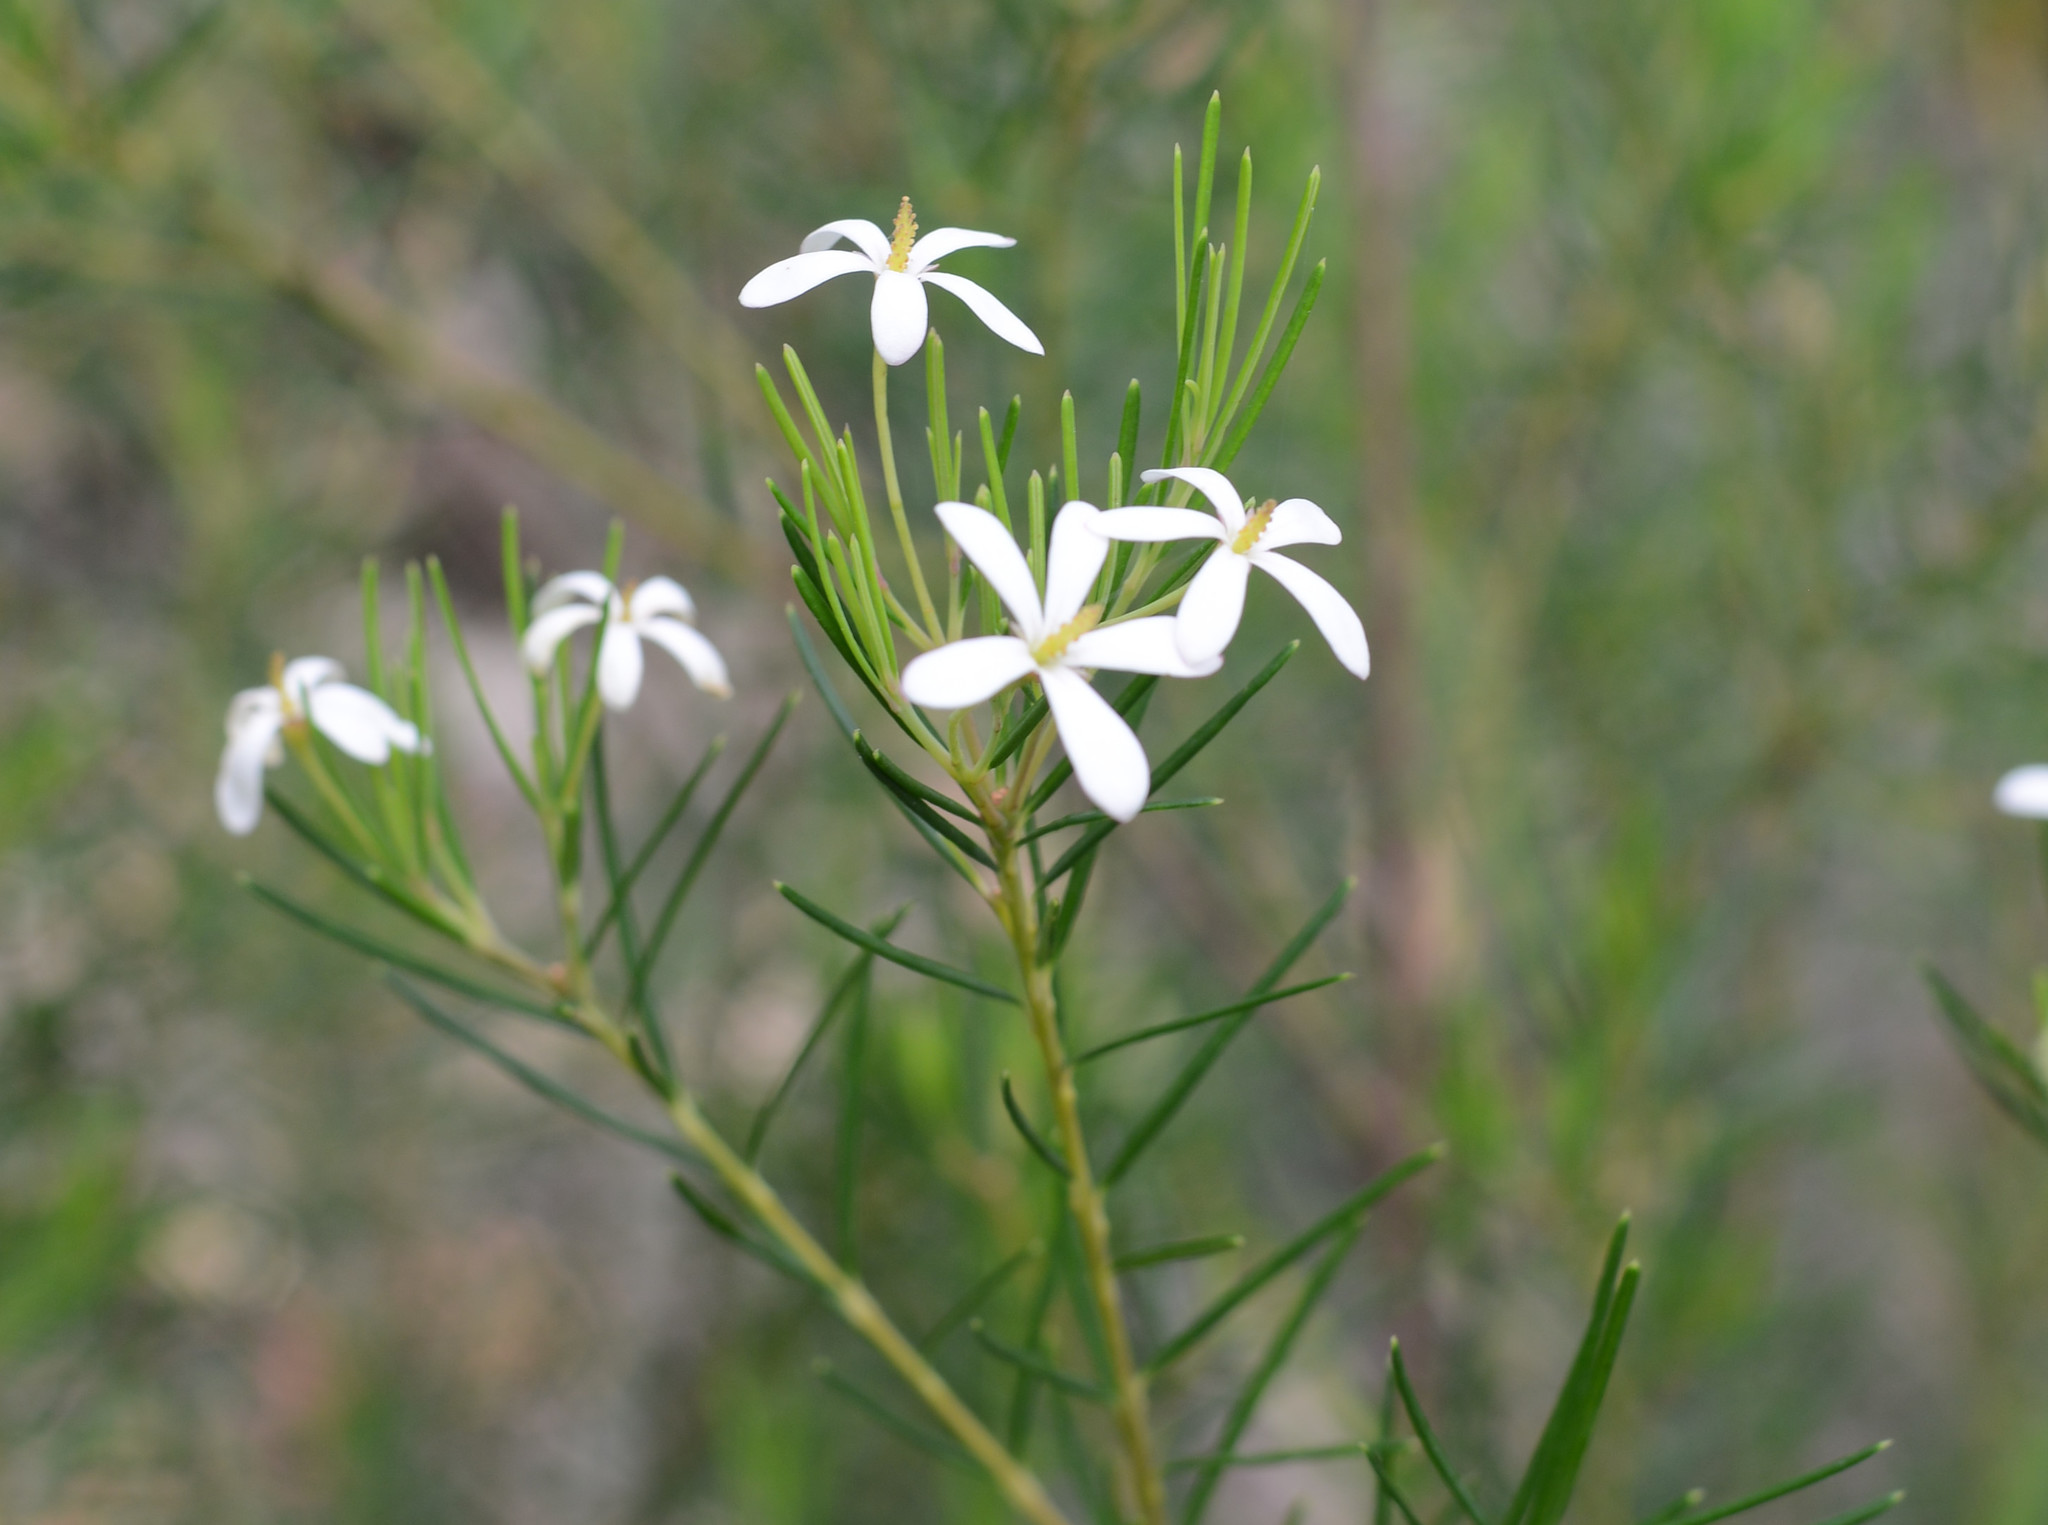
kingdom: Plantae
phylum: Tracheophyta
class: Magnoliopsida
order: Malpighiales
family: Euphorbiaceae
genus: Ricinocarpos
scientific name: Ricinocarpos pinifolius
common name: Weddingbush
